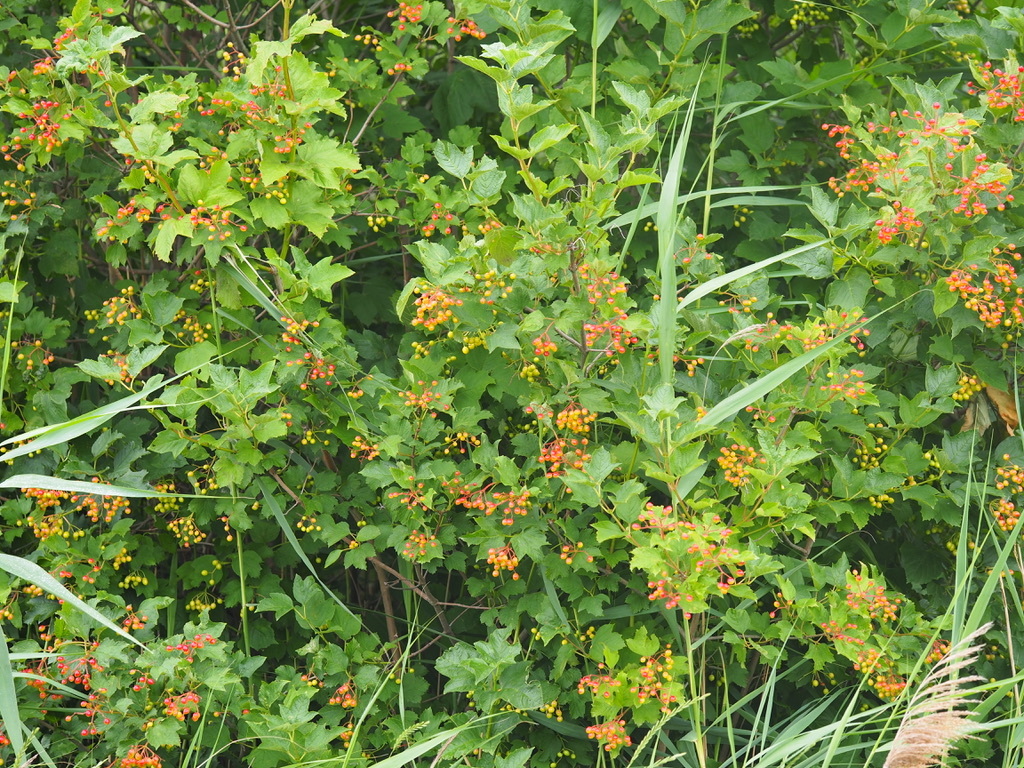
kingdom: Plantae
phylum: Tracheophyta
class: Magnoliopsida
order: Dipsacales
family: Viburnaceae
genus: Viburnum
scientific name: Viburnum opulus
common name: Guelder-rose
